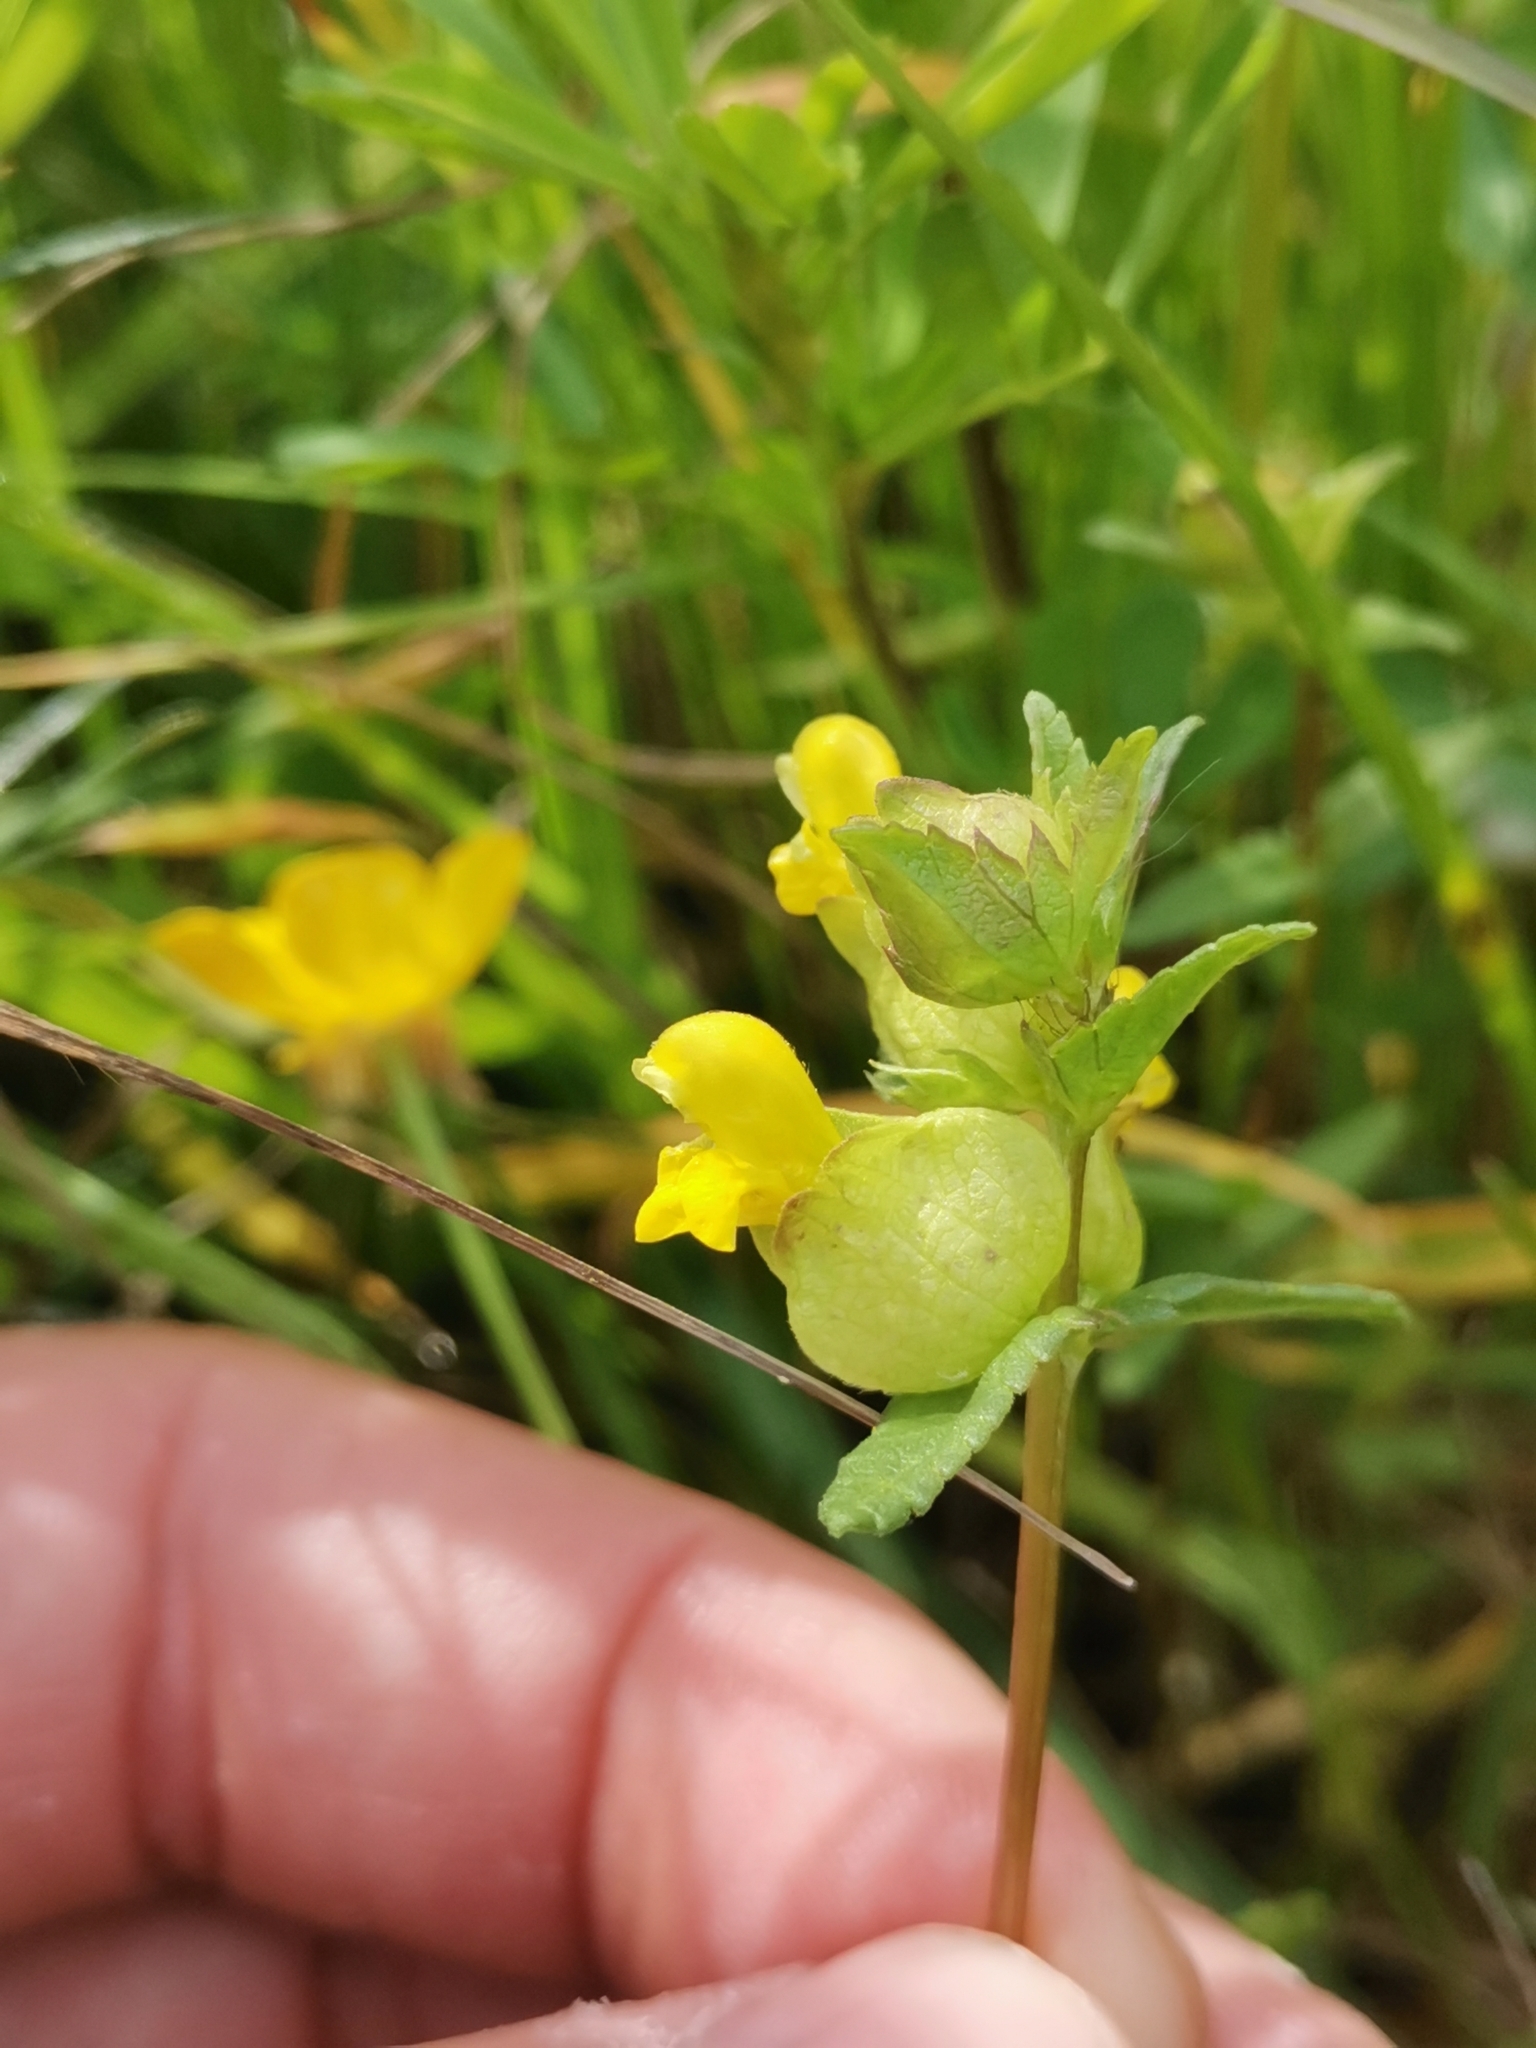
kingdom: Plantae
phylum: Tracheophyta
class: Magnoliopsida
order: Lamiales
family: Orobanchaceae
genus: Rhinanthus
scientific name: Rhinanthus minor
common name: Yellow-rattle
